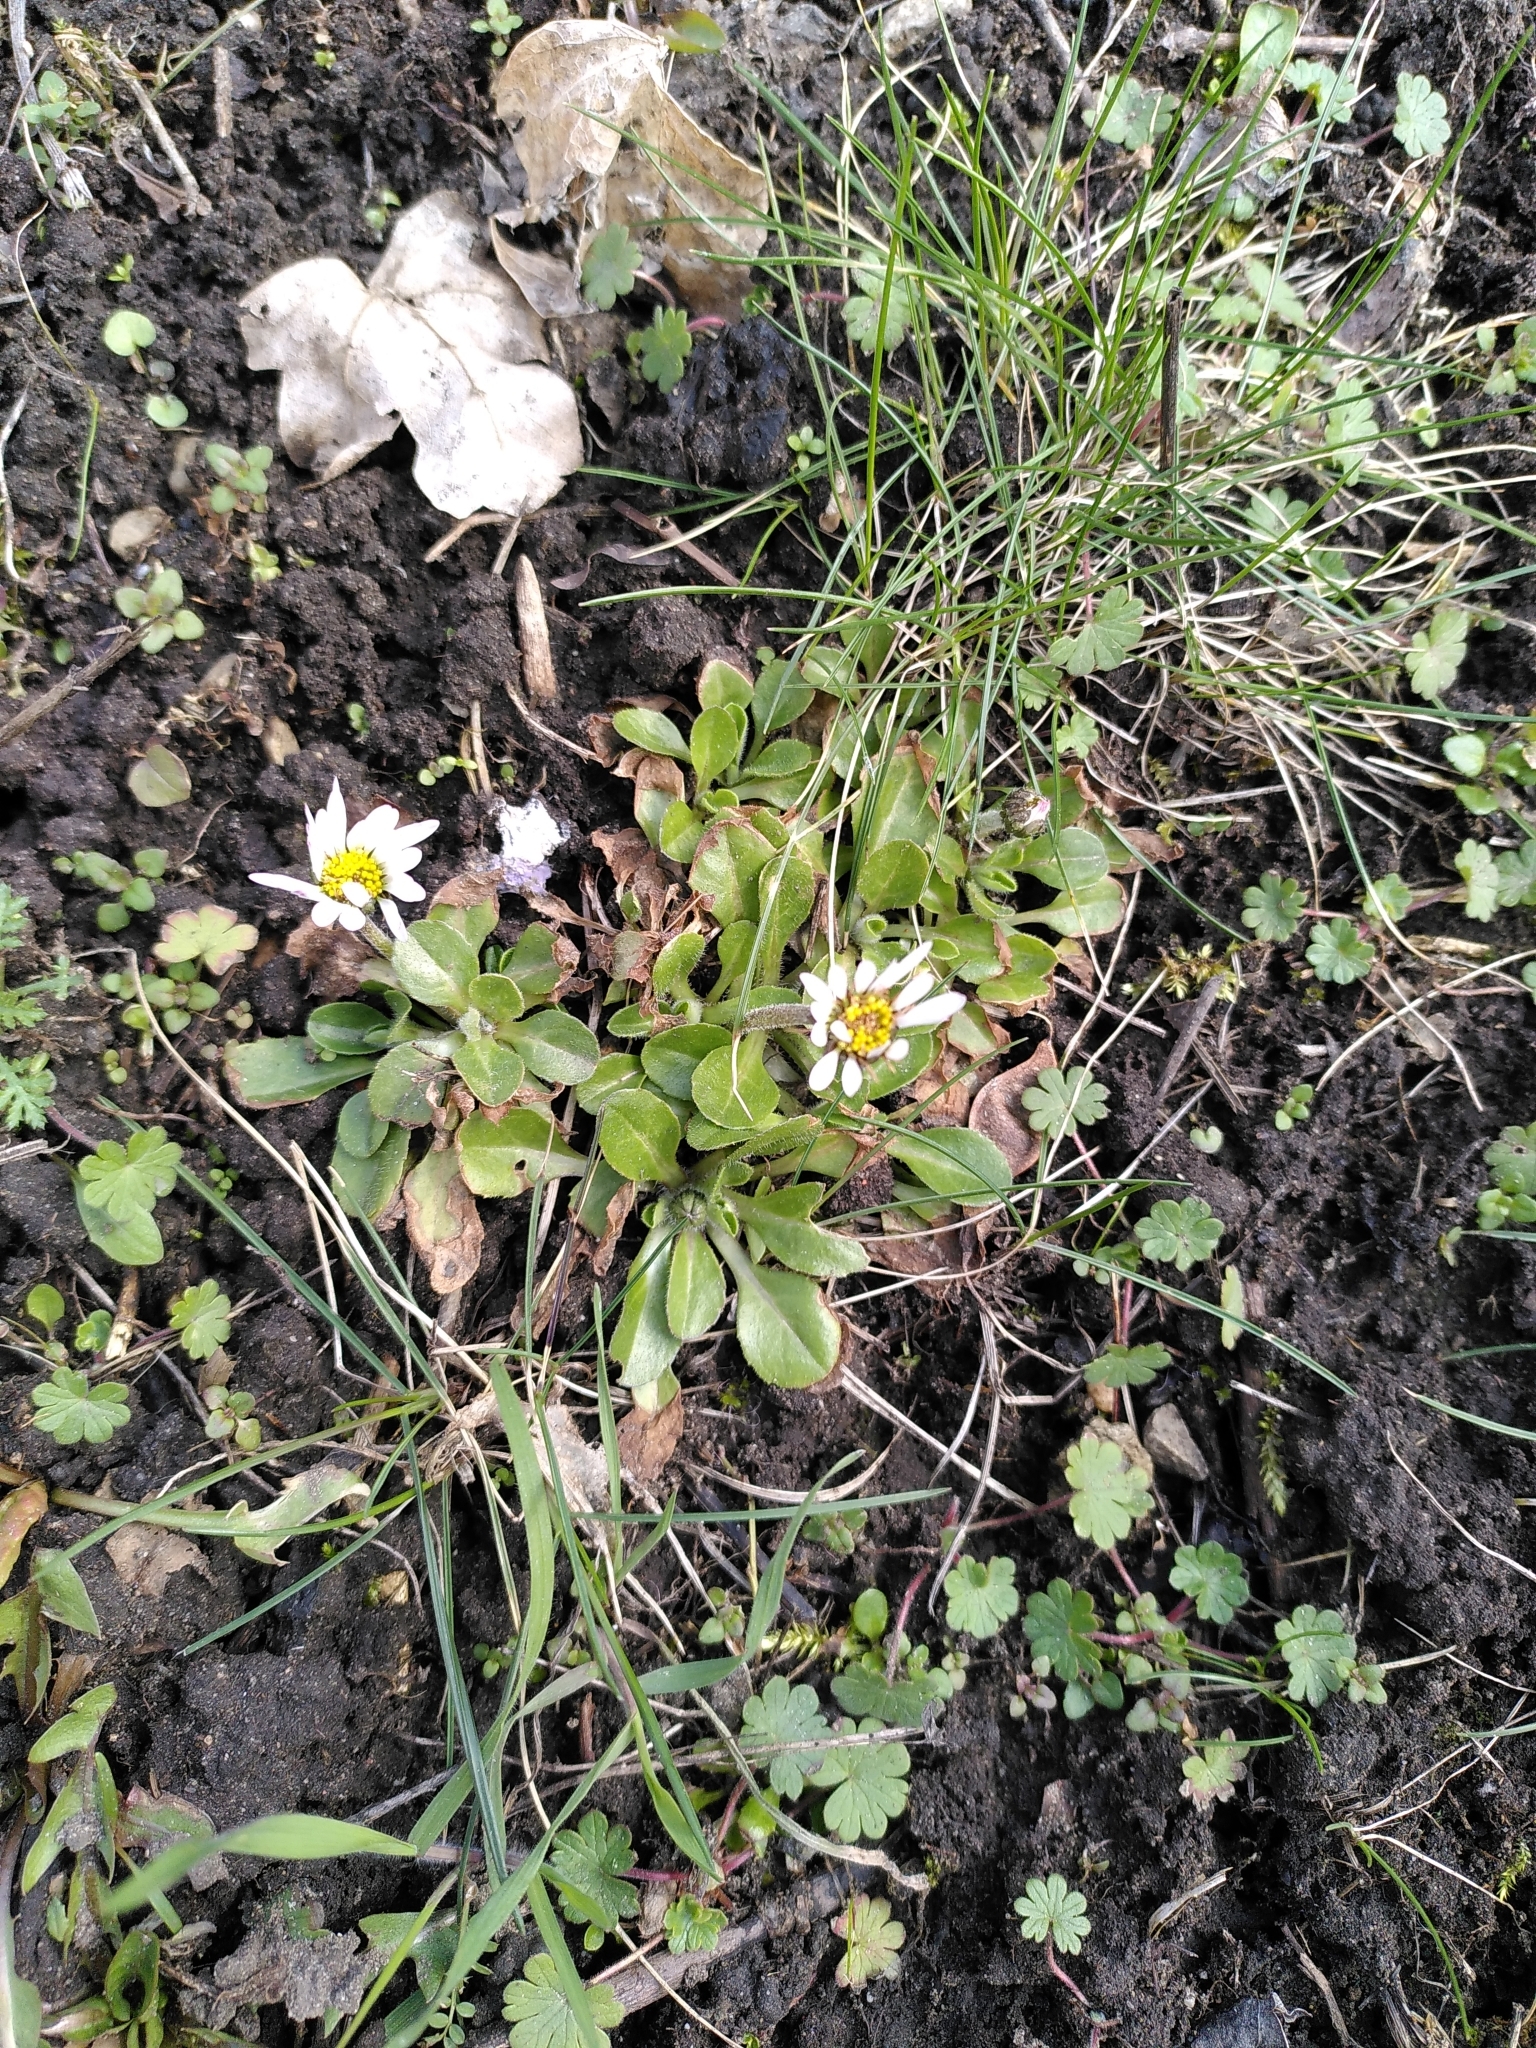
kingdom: Plantae
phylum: Tracheophyta
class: Magnoliopsida
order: Asterales
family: Asteraceae
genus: Bellis
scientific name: Bellis perennis
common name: Lawndaisy
